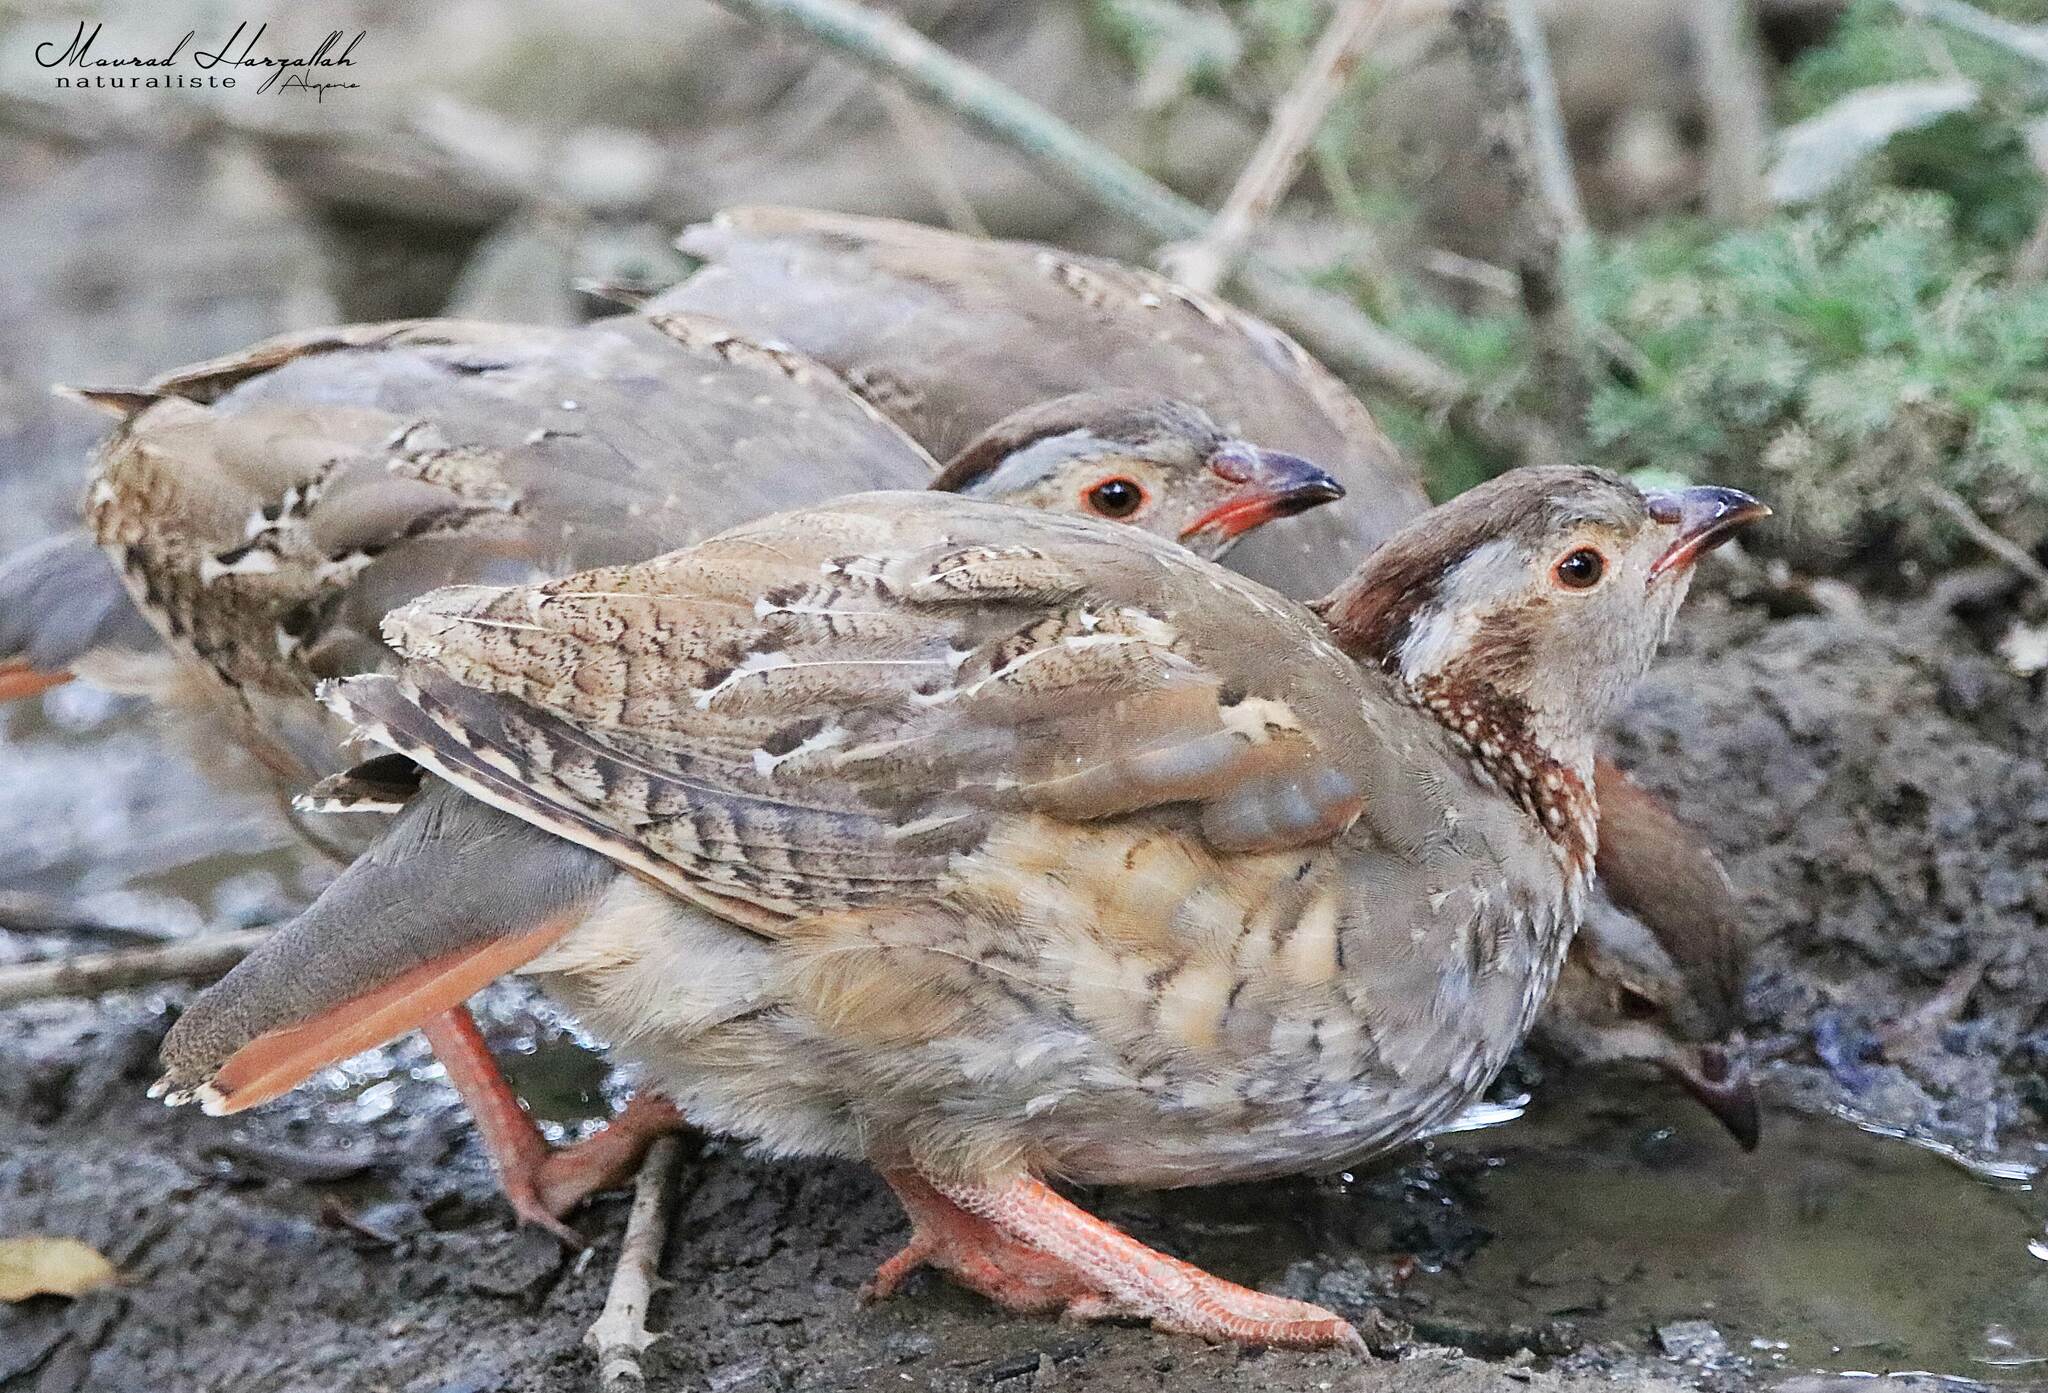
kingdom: Animalia
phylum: Chordata
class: Aves
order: Galliformes
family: Phasianidae
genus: Alectoris
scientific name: Alectoris barbara
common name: Barbary partridge
